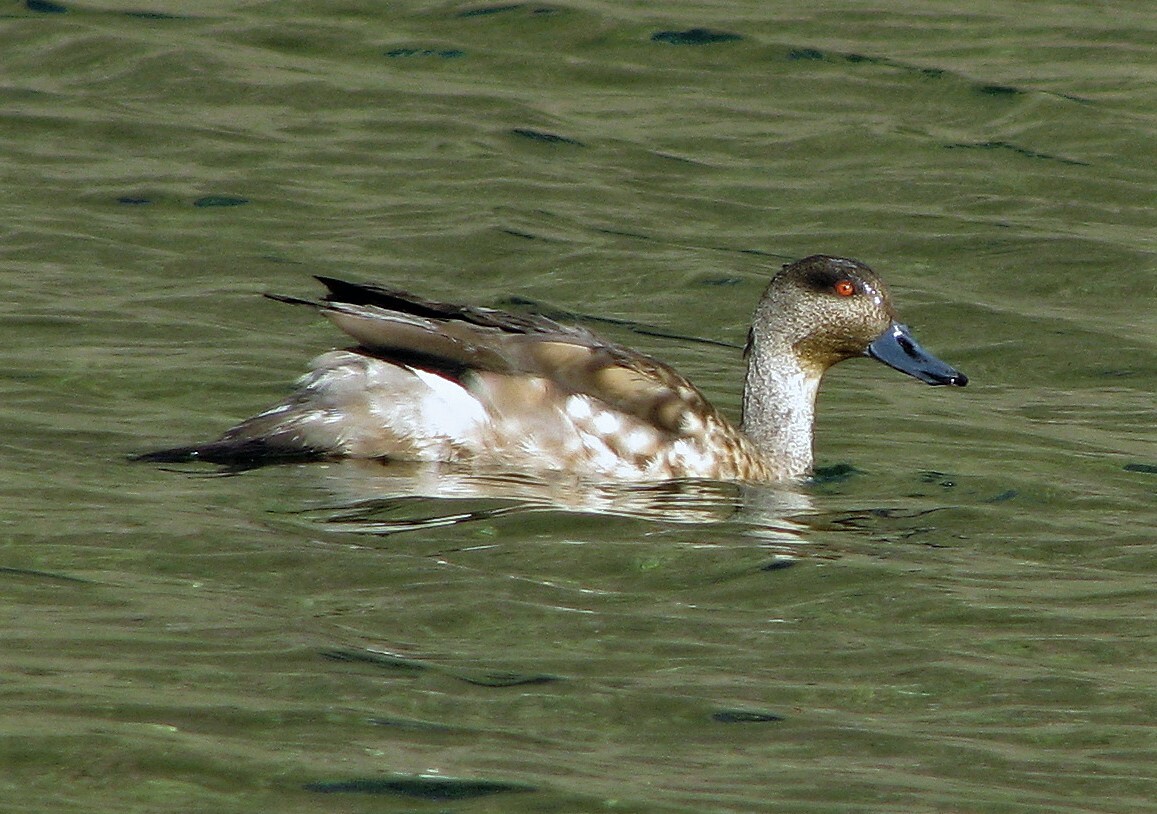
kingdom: Animalia
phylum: Chordata
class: Aves
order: Anseriformes
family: Anatidae
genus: Lophonetta
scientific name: Lophonetta specularioides
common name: Crested duck
